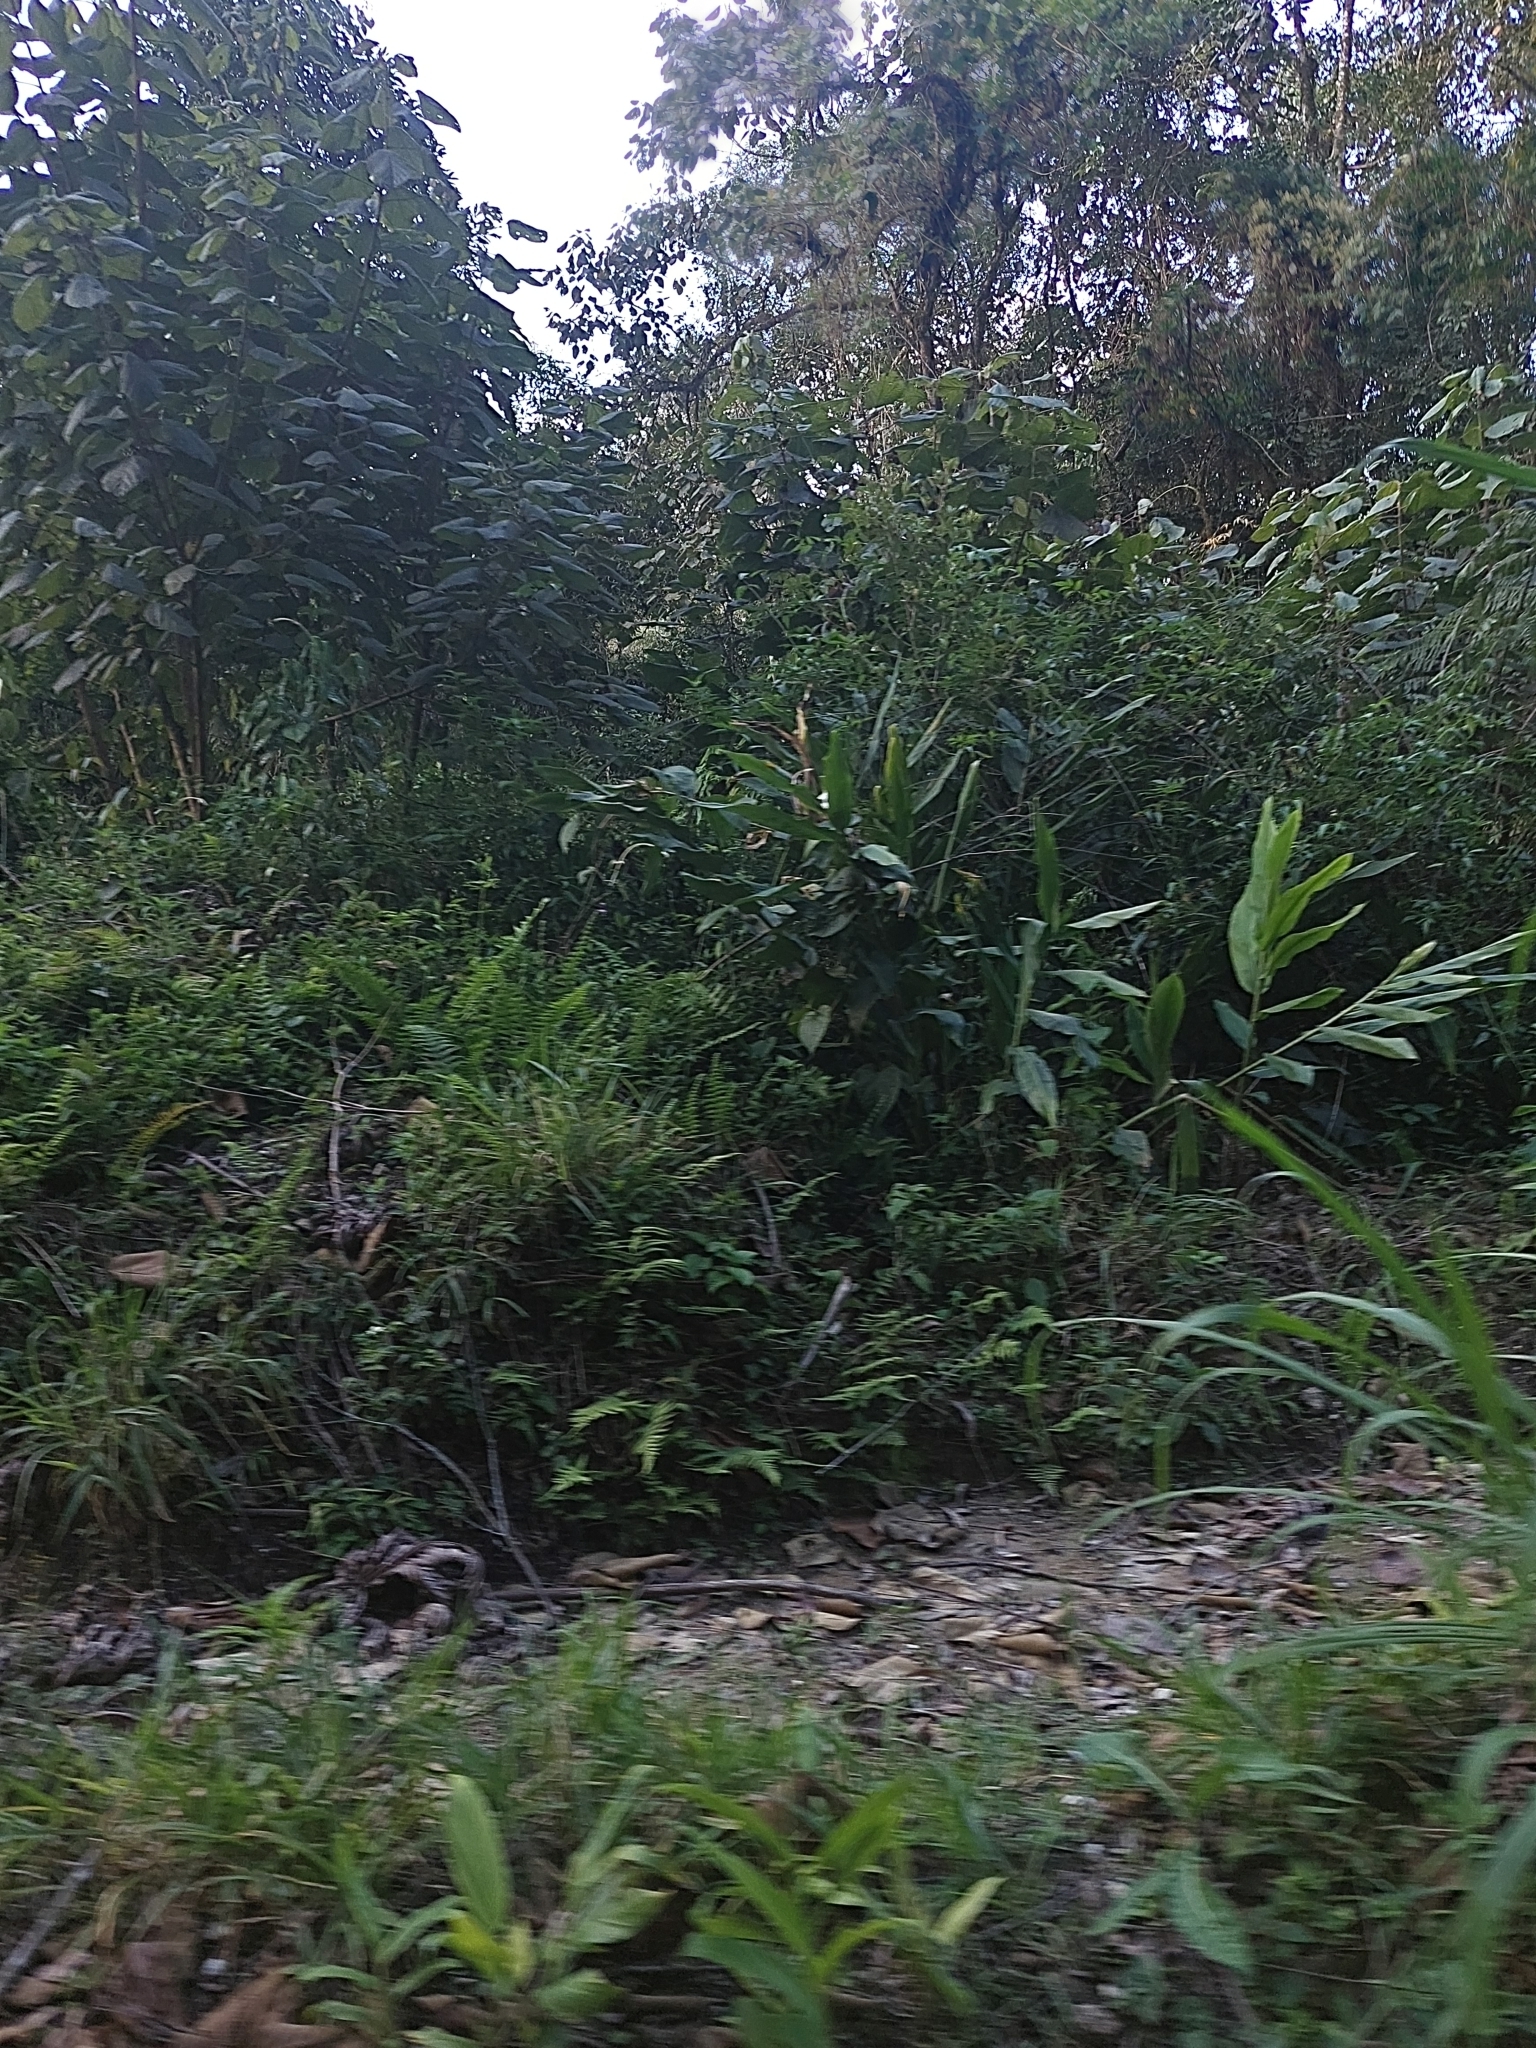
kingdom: Plantae
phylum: Tracheophyta
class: Liliopsida
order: Zingiberales
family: Zingiberaceae
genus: Hedychium
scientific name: Hedychium coronarium
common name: White garland-lily
